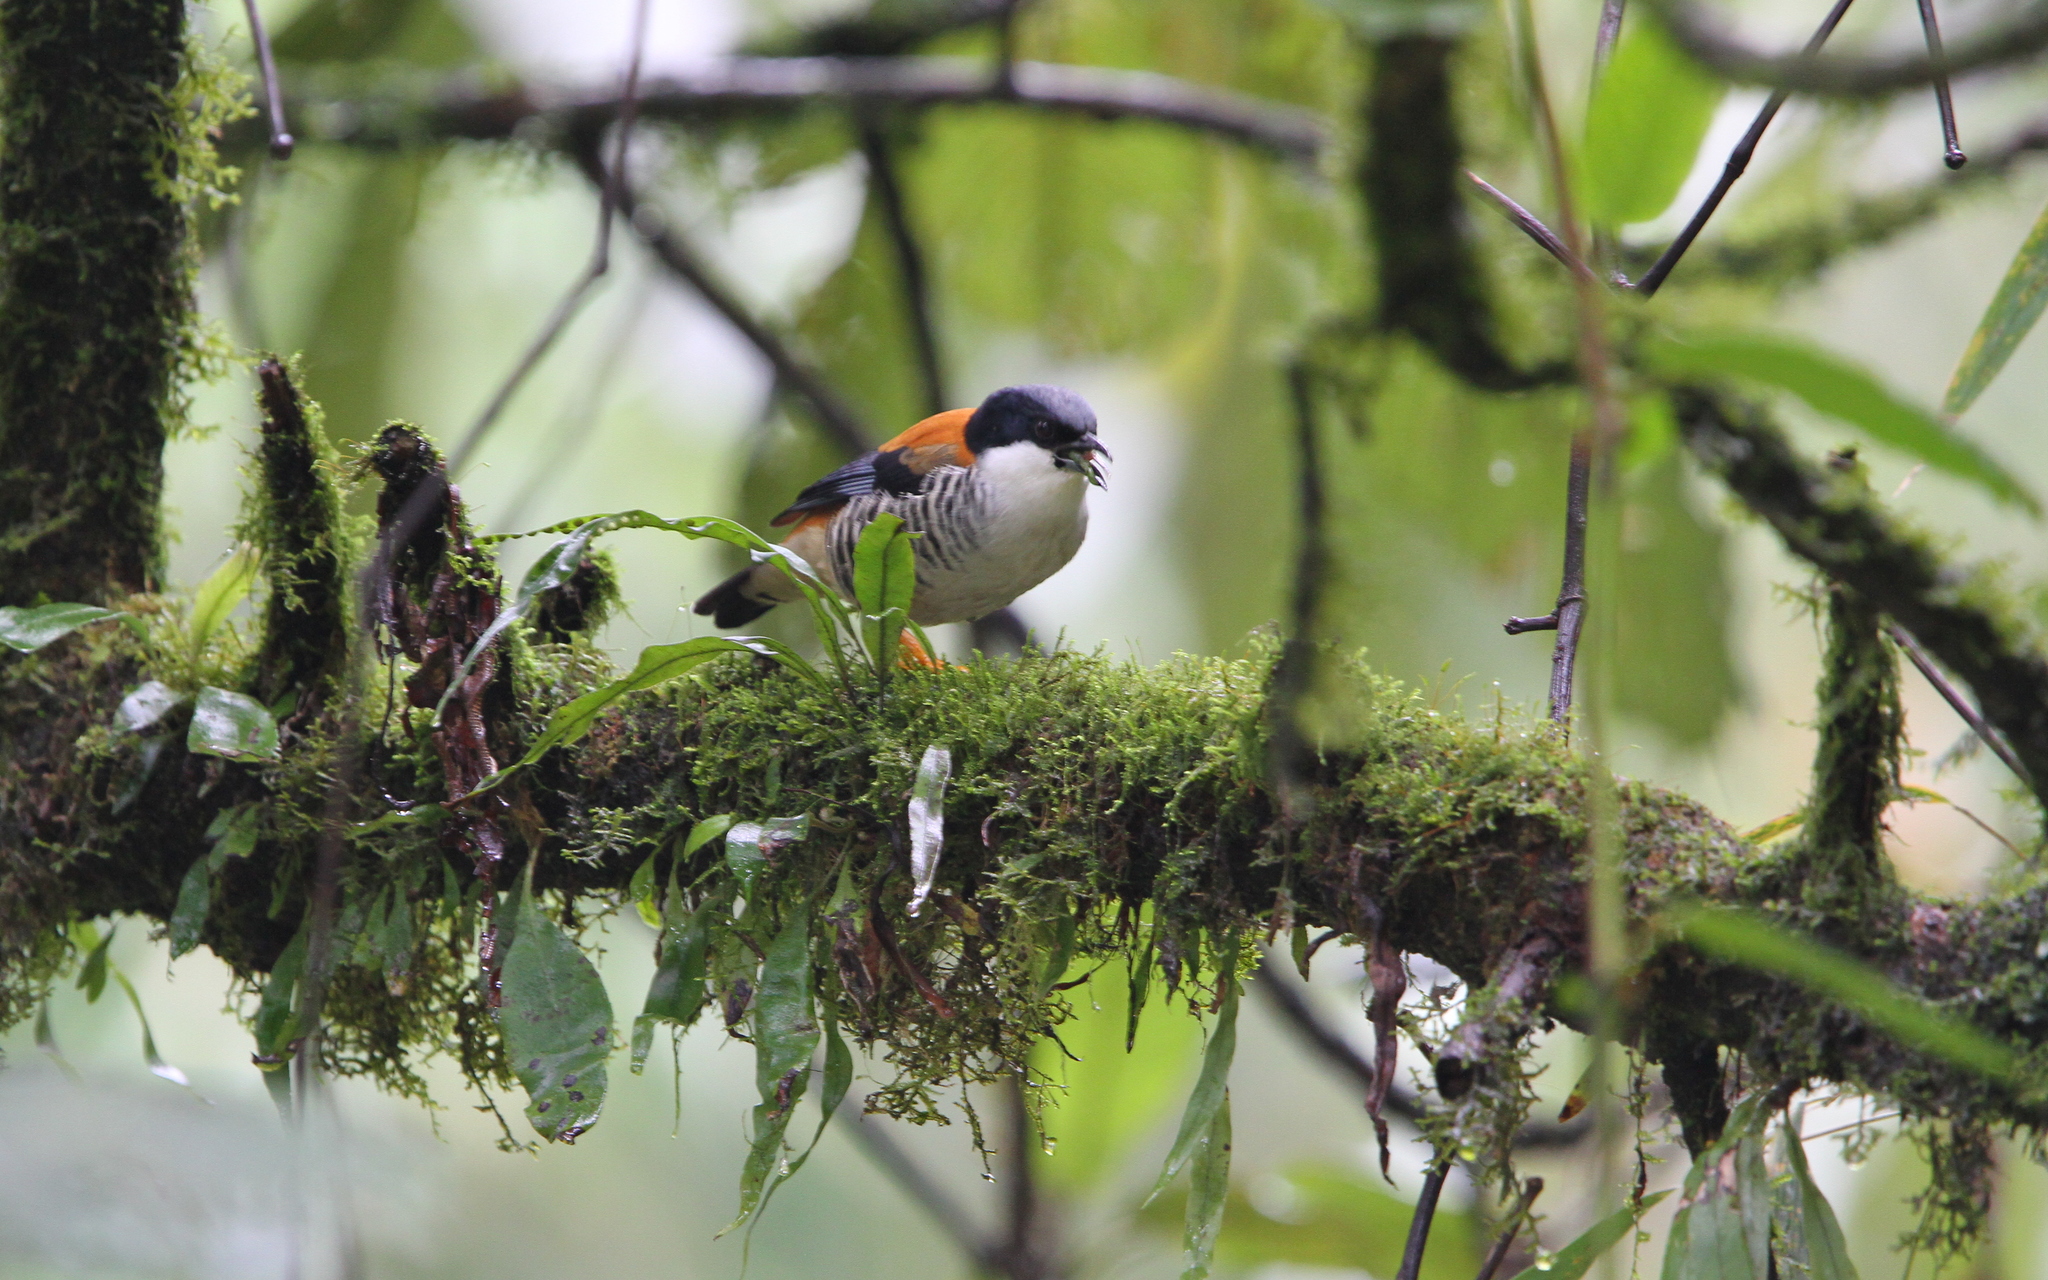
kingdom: Animalia
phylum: Chordata
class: Aves
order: Passeriformes
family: Leiothrichidae
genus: Cutia
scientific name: Cutia nipalensis
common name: Himalayan cutia
